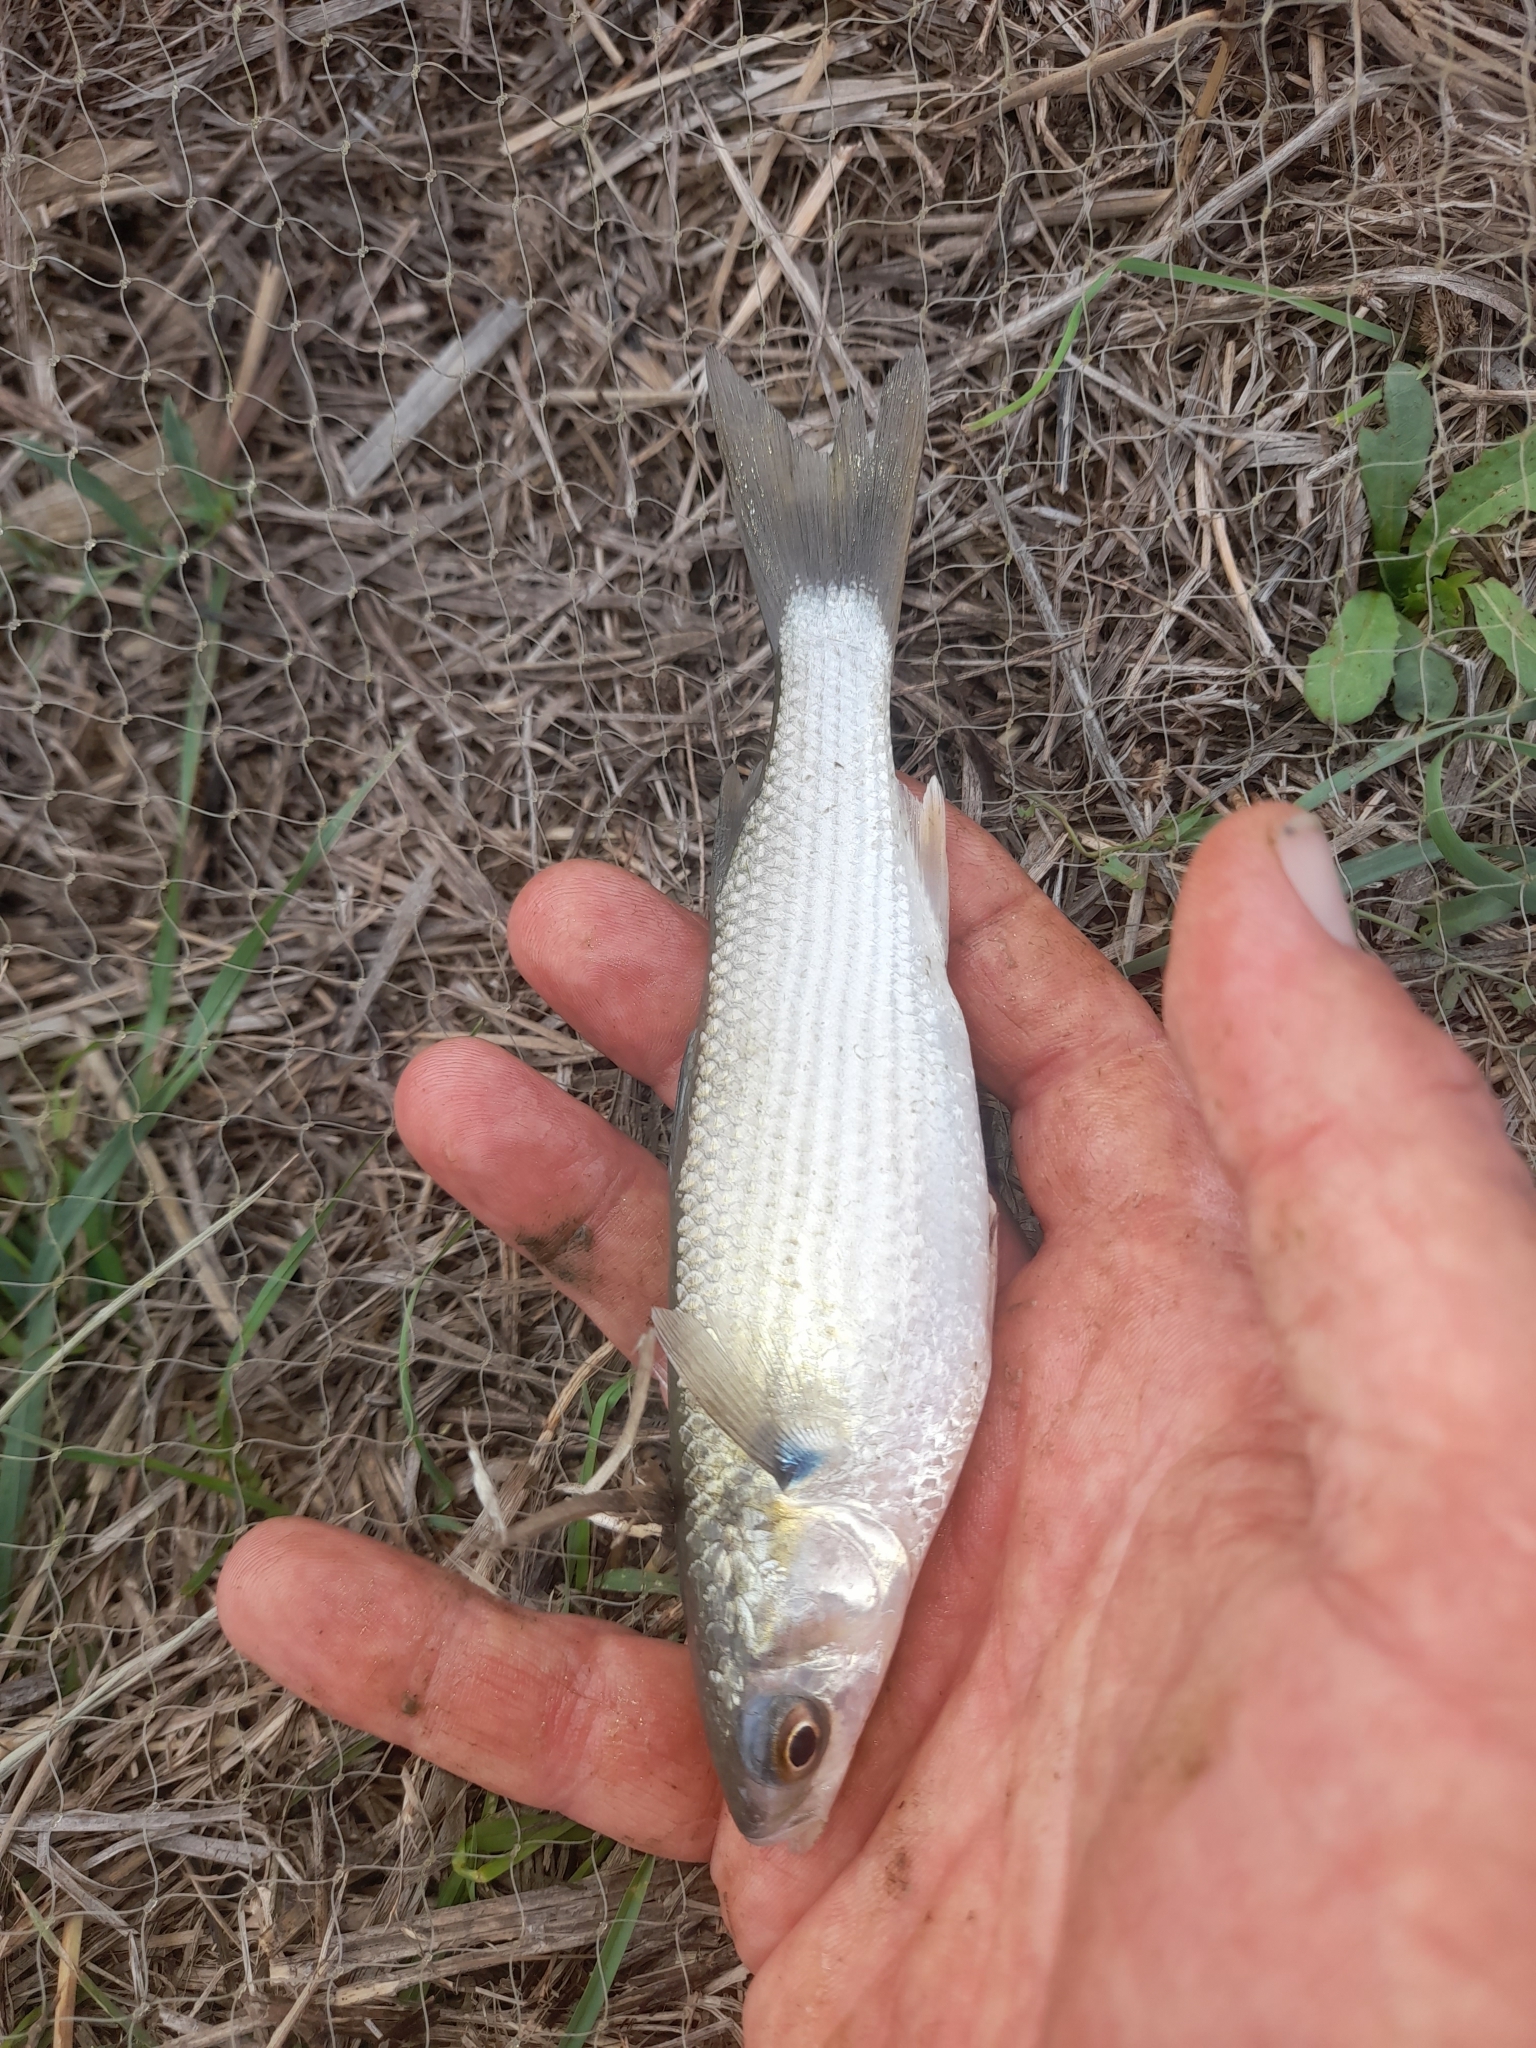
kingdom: Animalia
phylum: Chordata
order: Mugiliformes
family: Mugilidae
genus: Mugil
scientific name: Mugil cephalus
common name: Grey mullet
